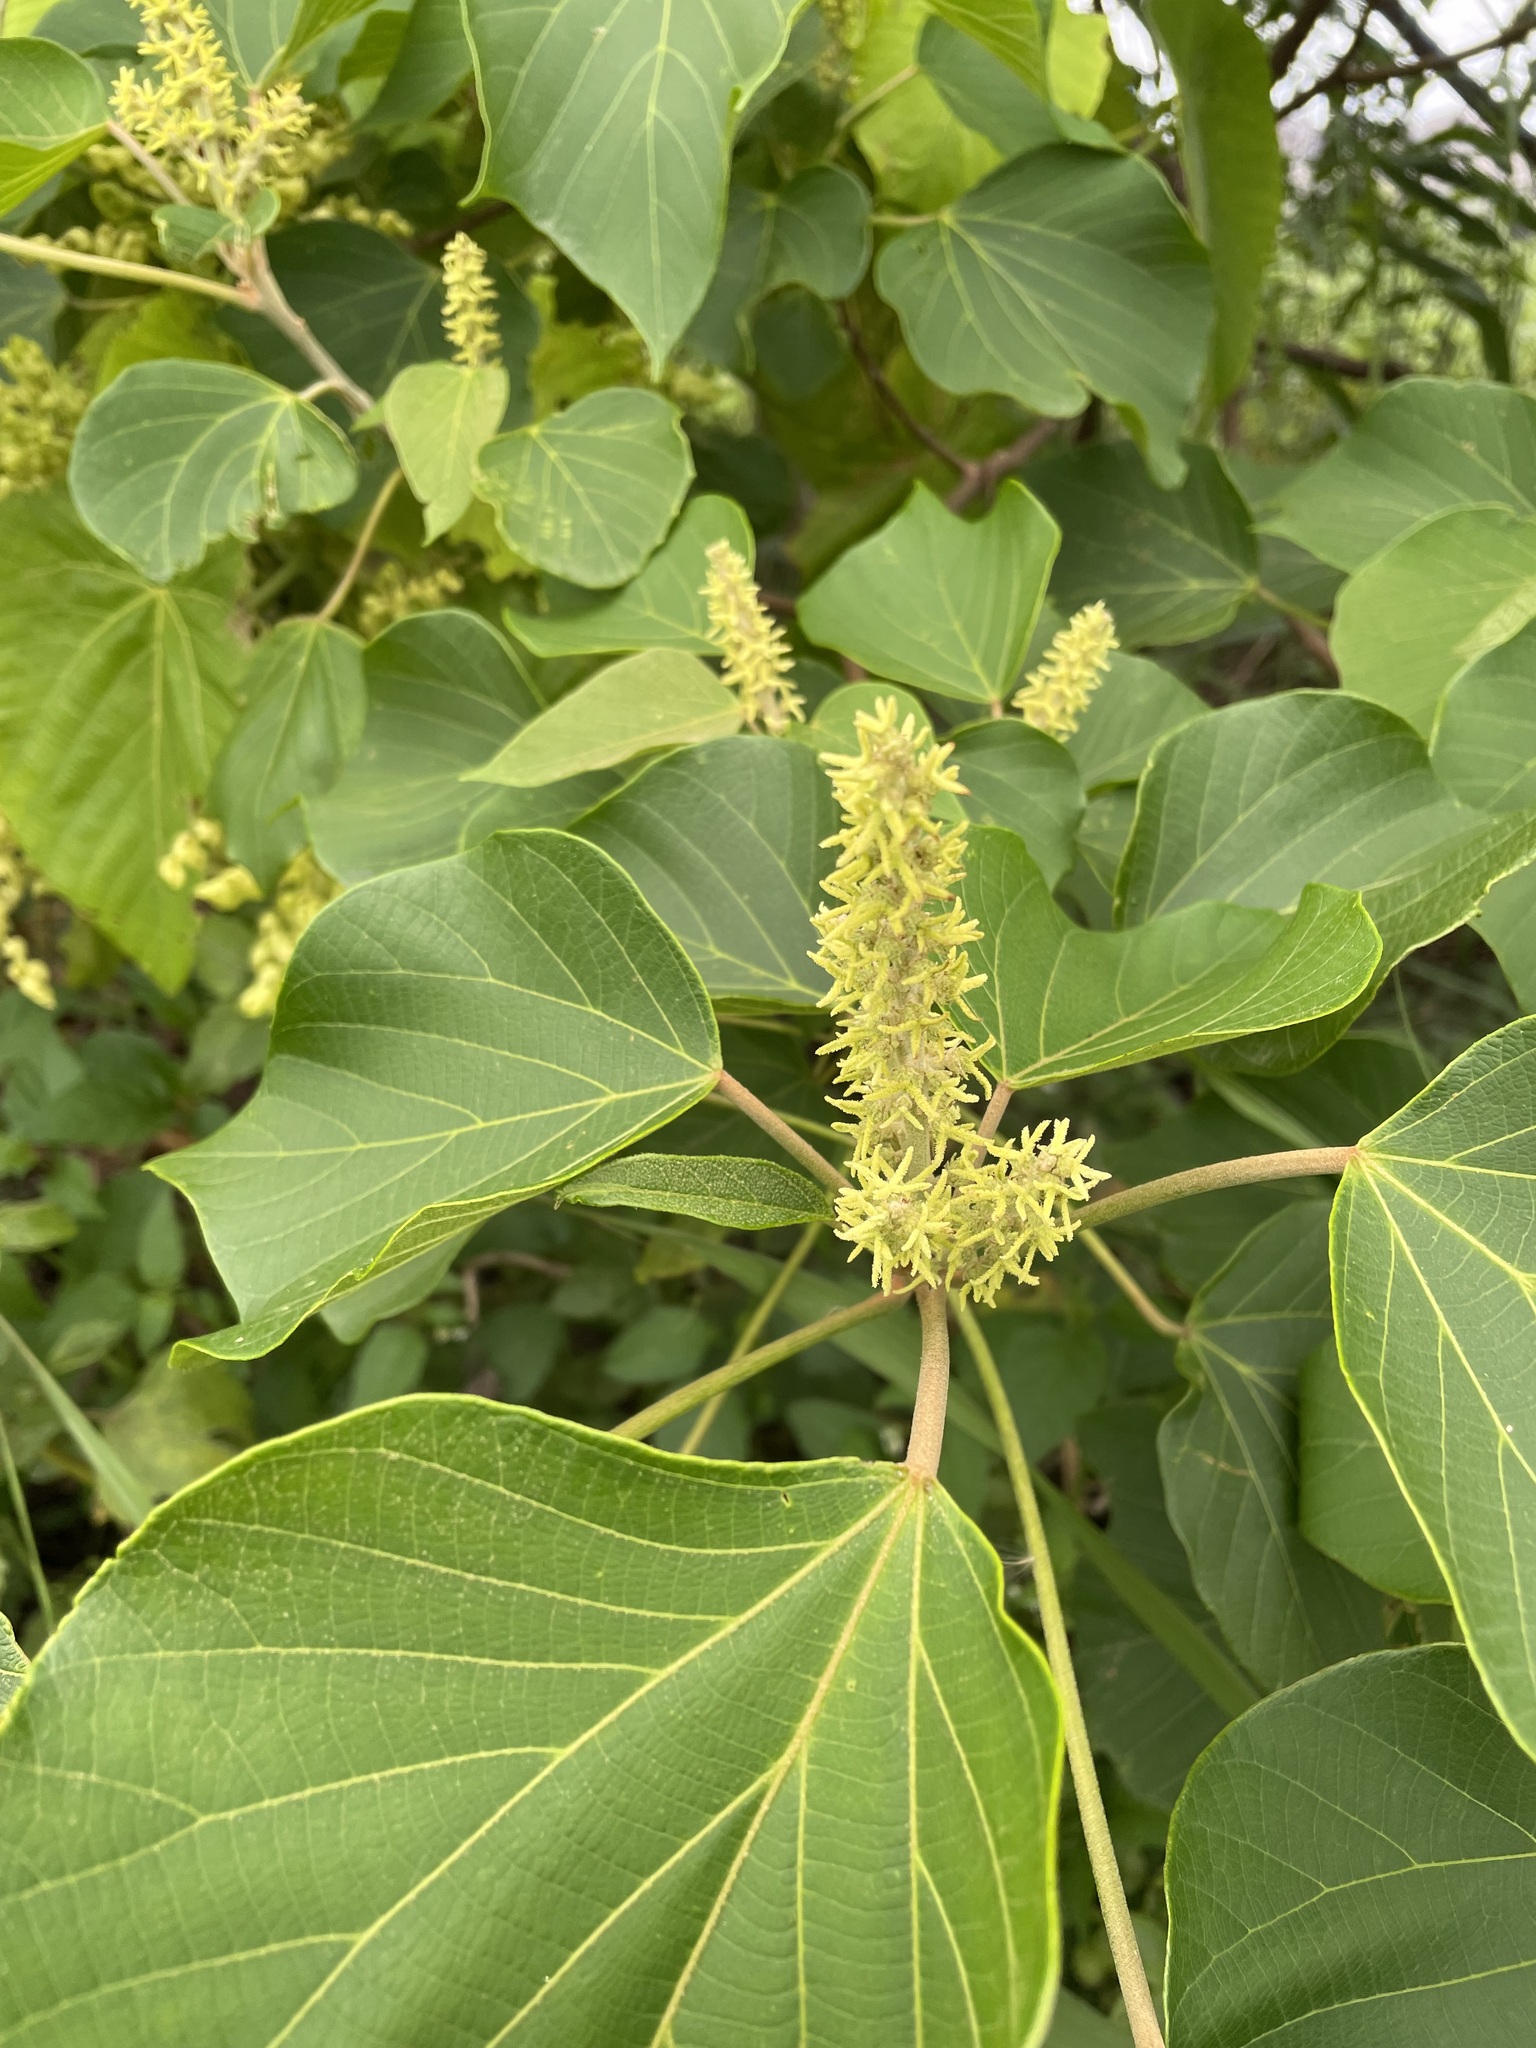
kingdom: Plantae
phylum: Tracheophyta
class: Magnoliopsida
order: Malpighiales
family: Euphorbiaceae
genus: Mallotus
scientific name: Mallotus japonicus
